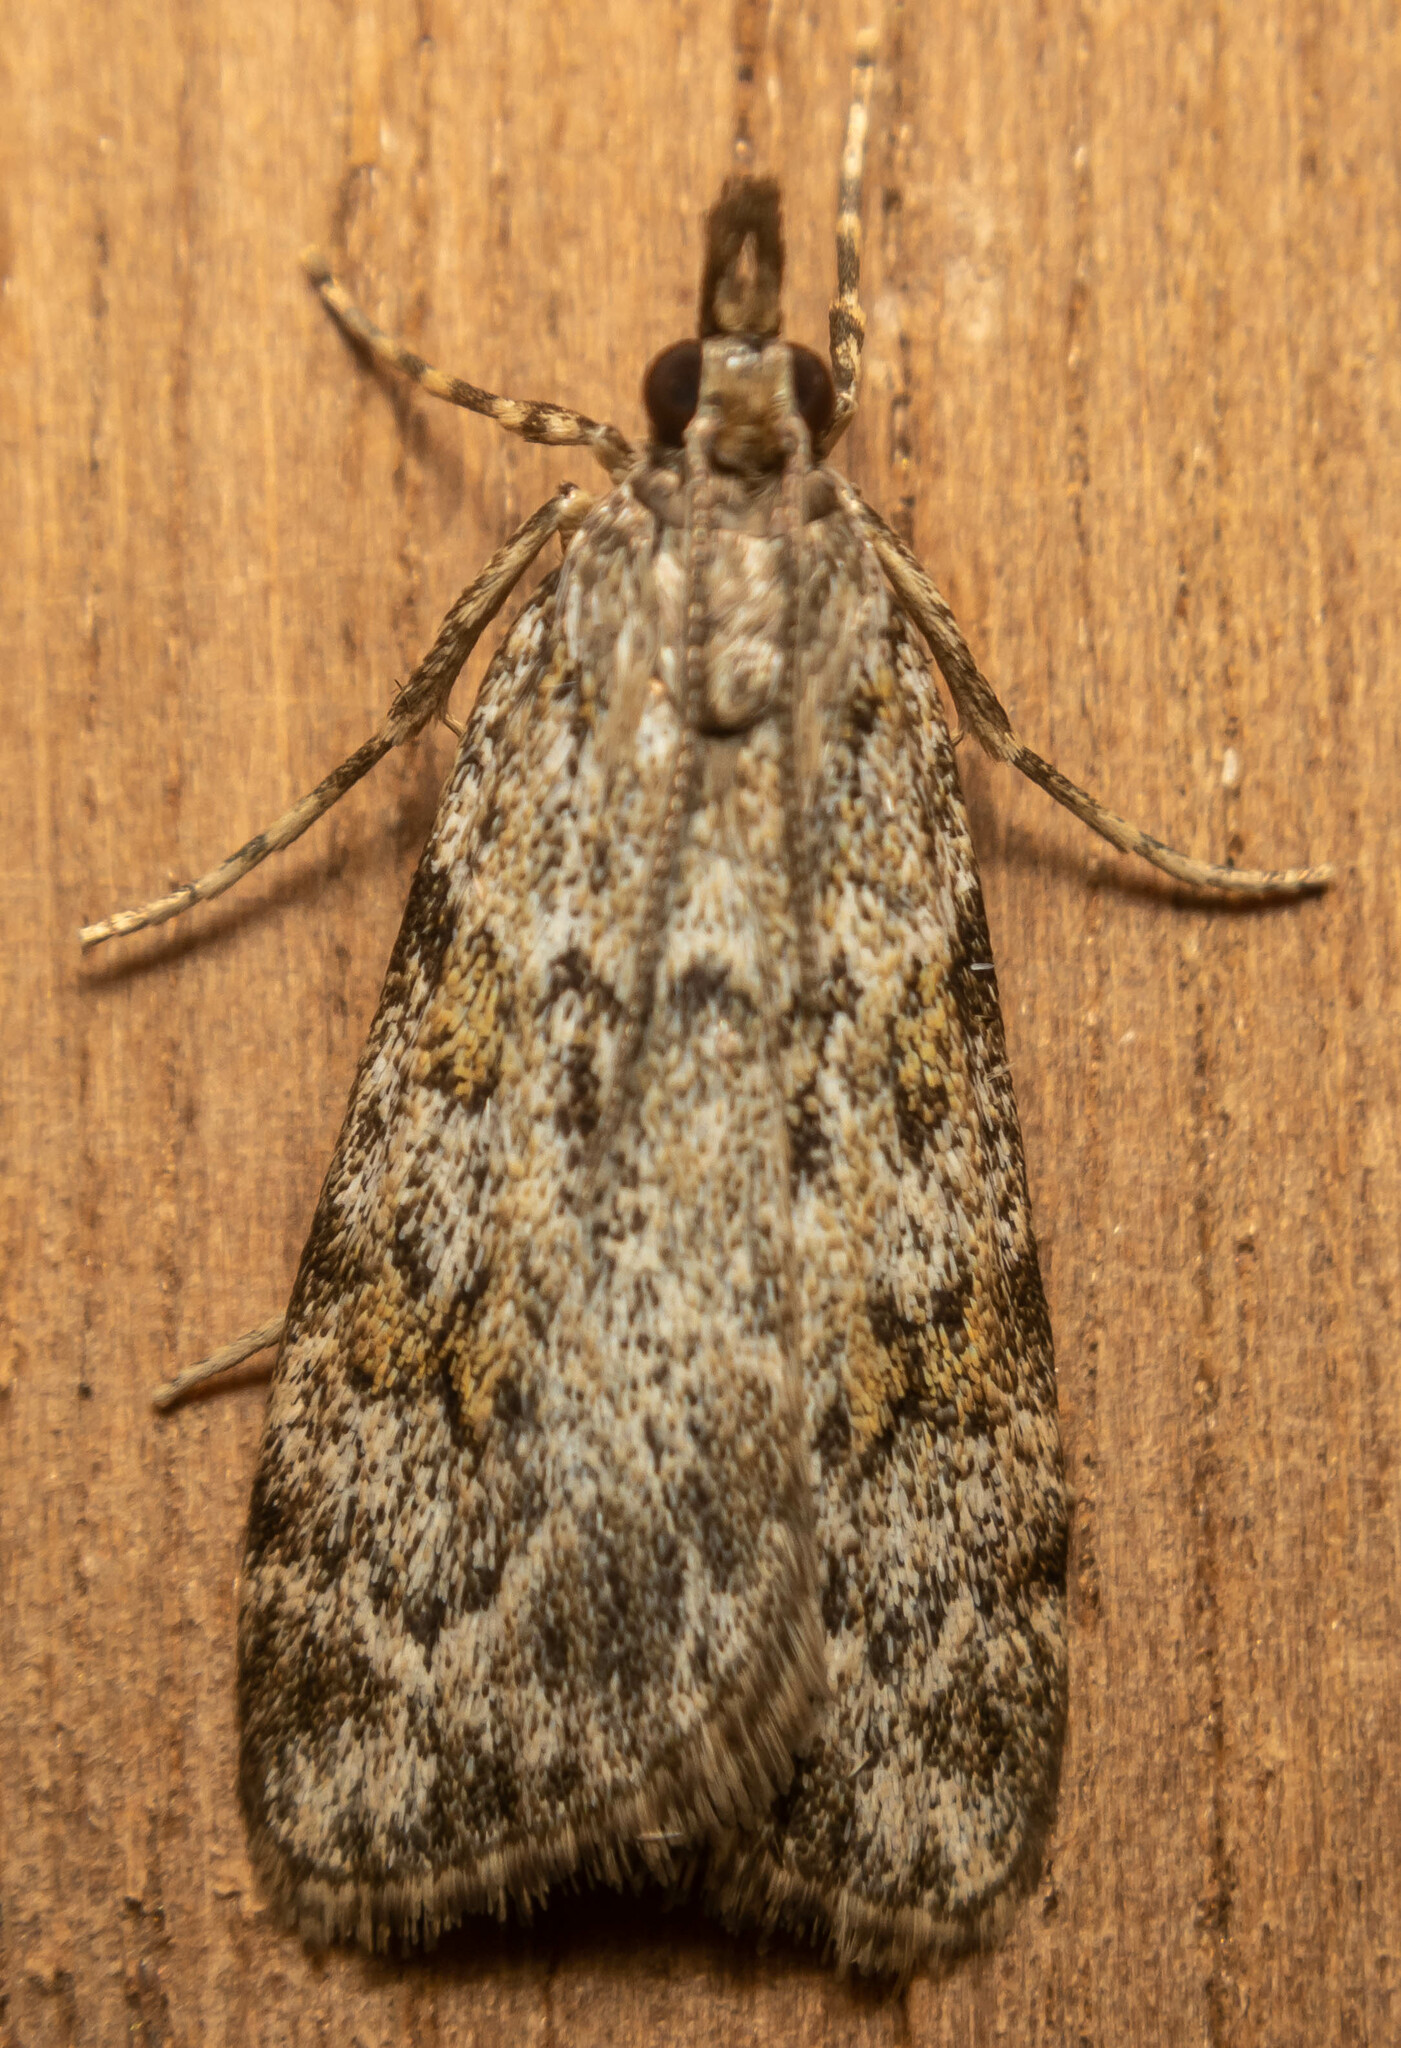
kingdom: Animalia
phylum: Arthropoda
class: Insecta
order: Lepidoptera
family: Crambidae
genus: Scoparia
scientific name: Scoparia ambigualis
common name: Common grey
